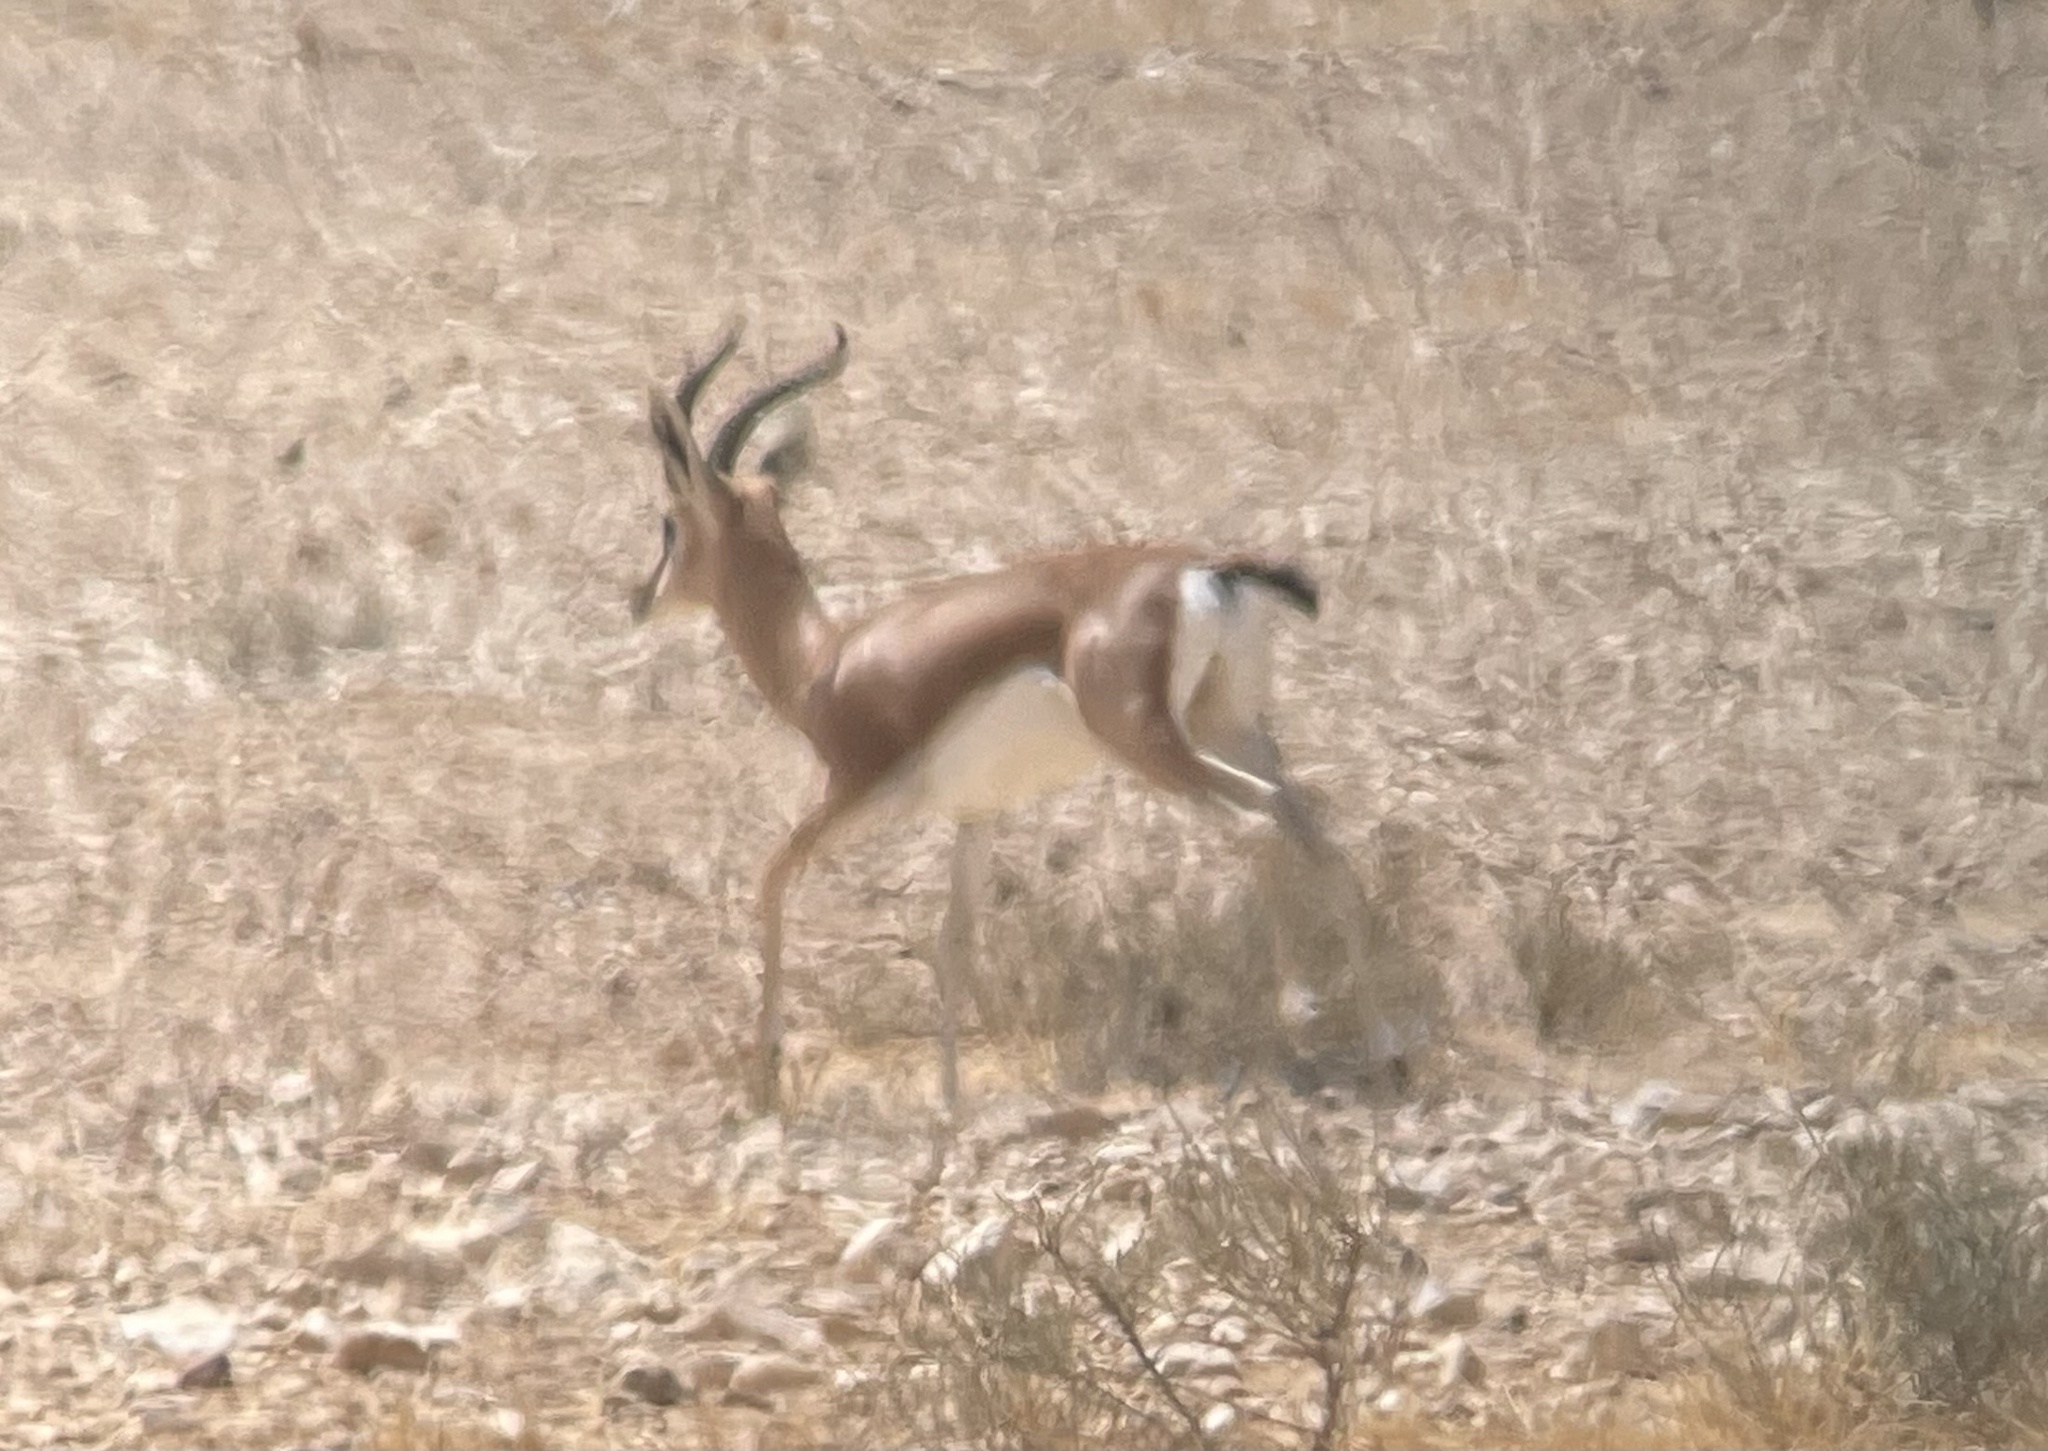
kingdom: Animalia
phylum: Chordata
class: Mammalia
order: Artiodactyla
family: Bovidae
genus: Gazella
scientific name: Gazella dorcas
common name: Dorcas gazelle
